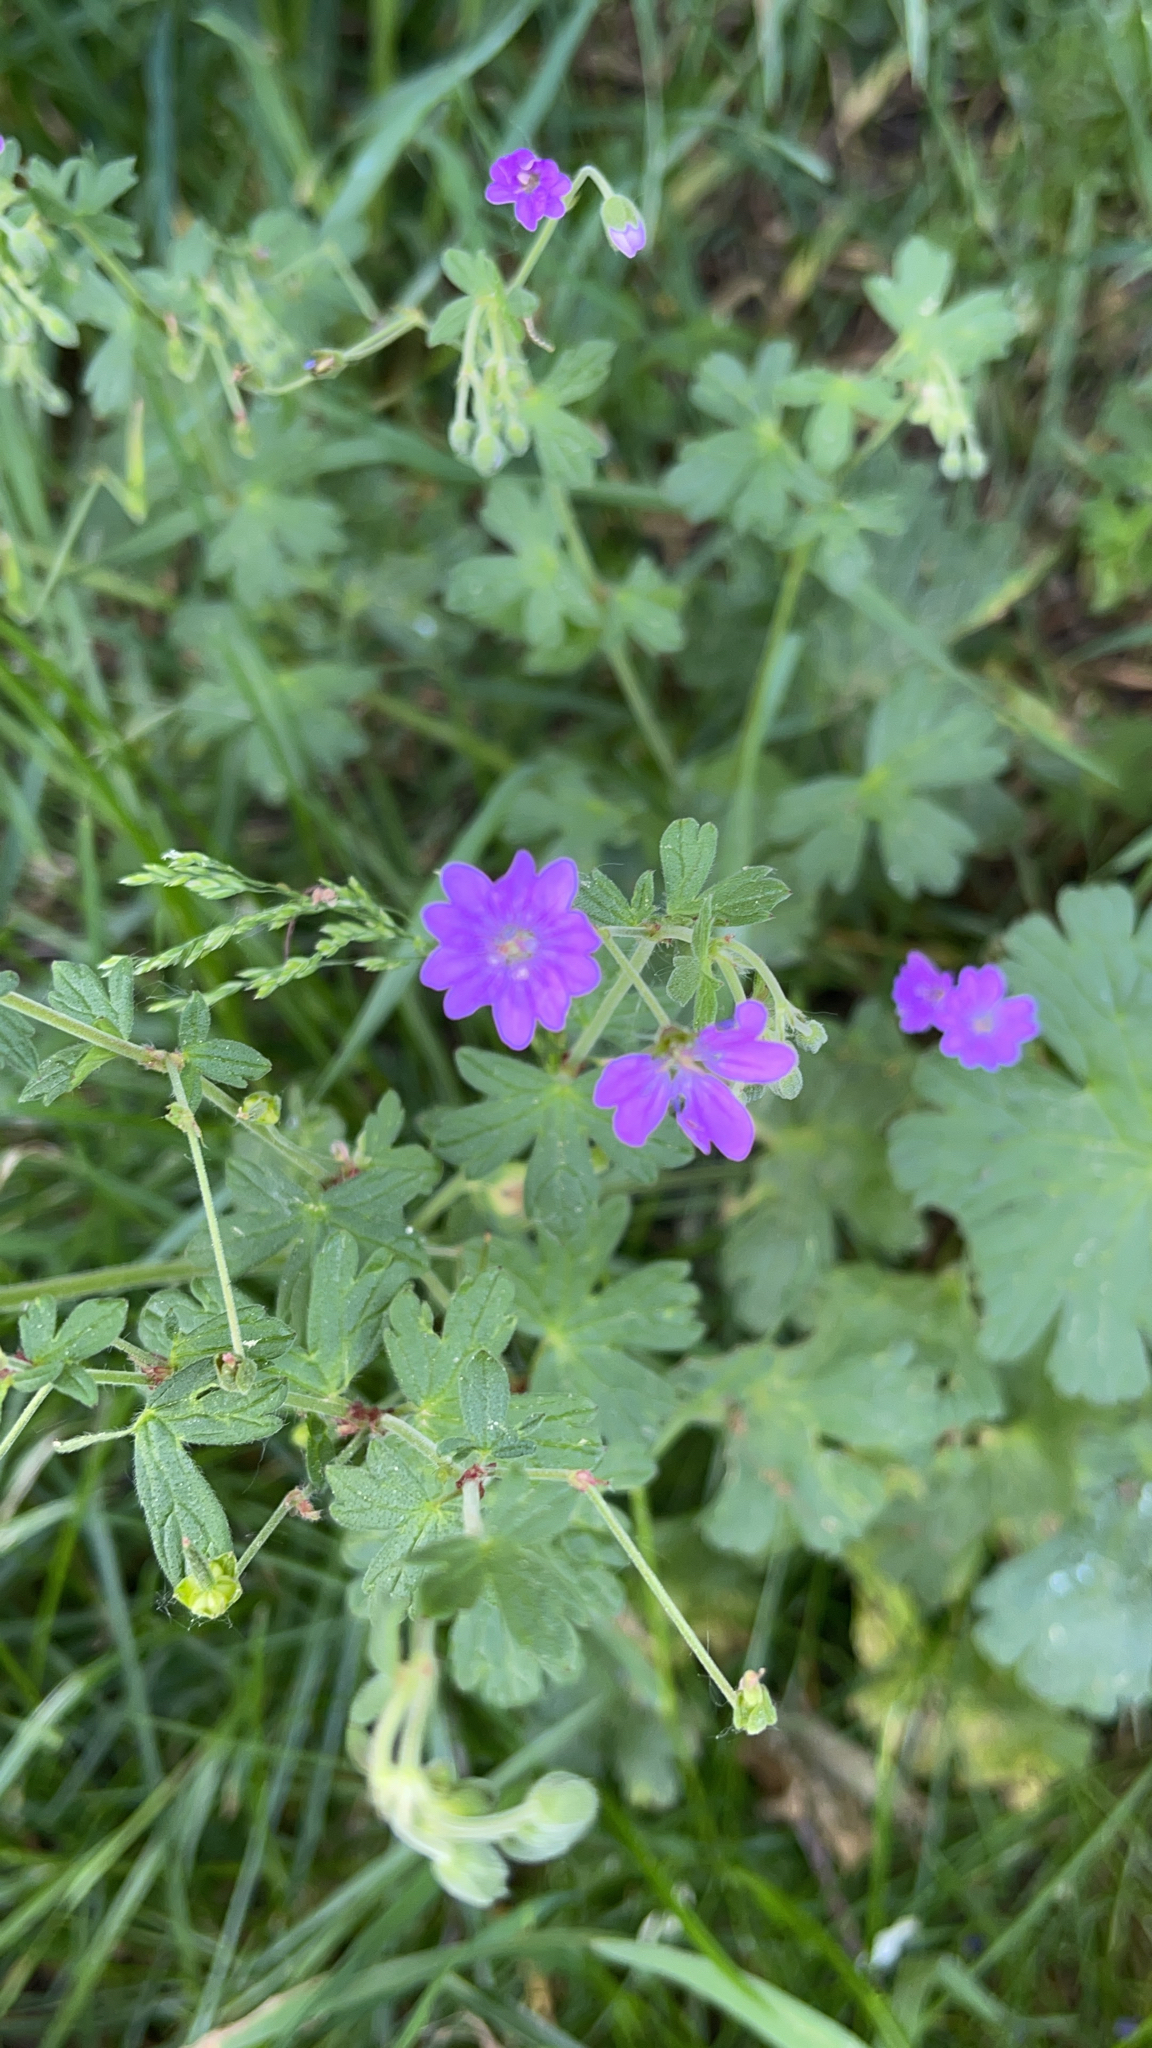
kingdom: Plantae
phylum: Tracheophyta
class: Magnoliopsida
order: Geraniales
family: Geraniaceae
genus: Geranium
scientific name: Geranium pyrenaicum
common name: Hedgerow crane's-bill
